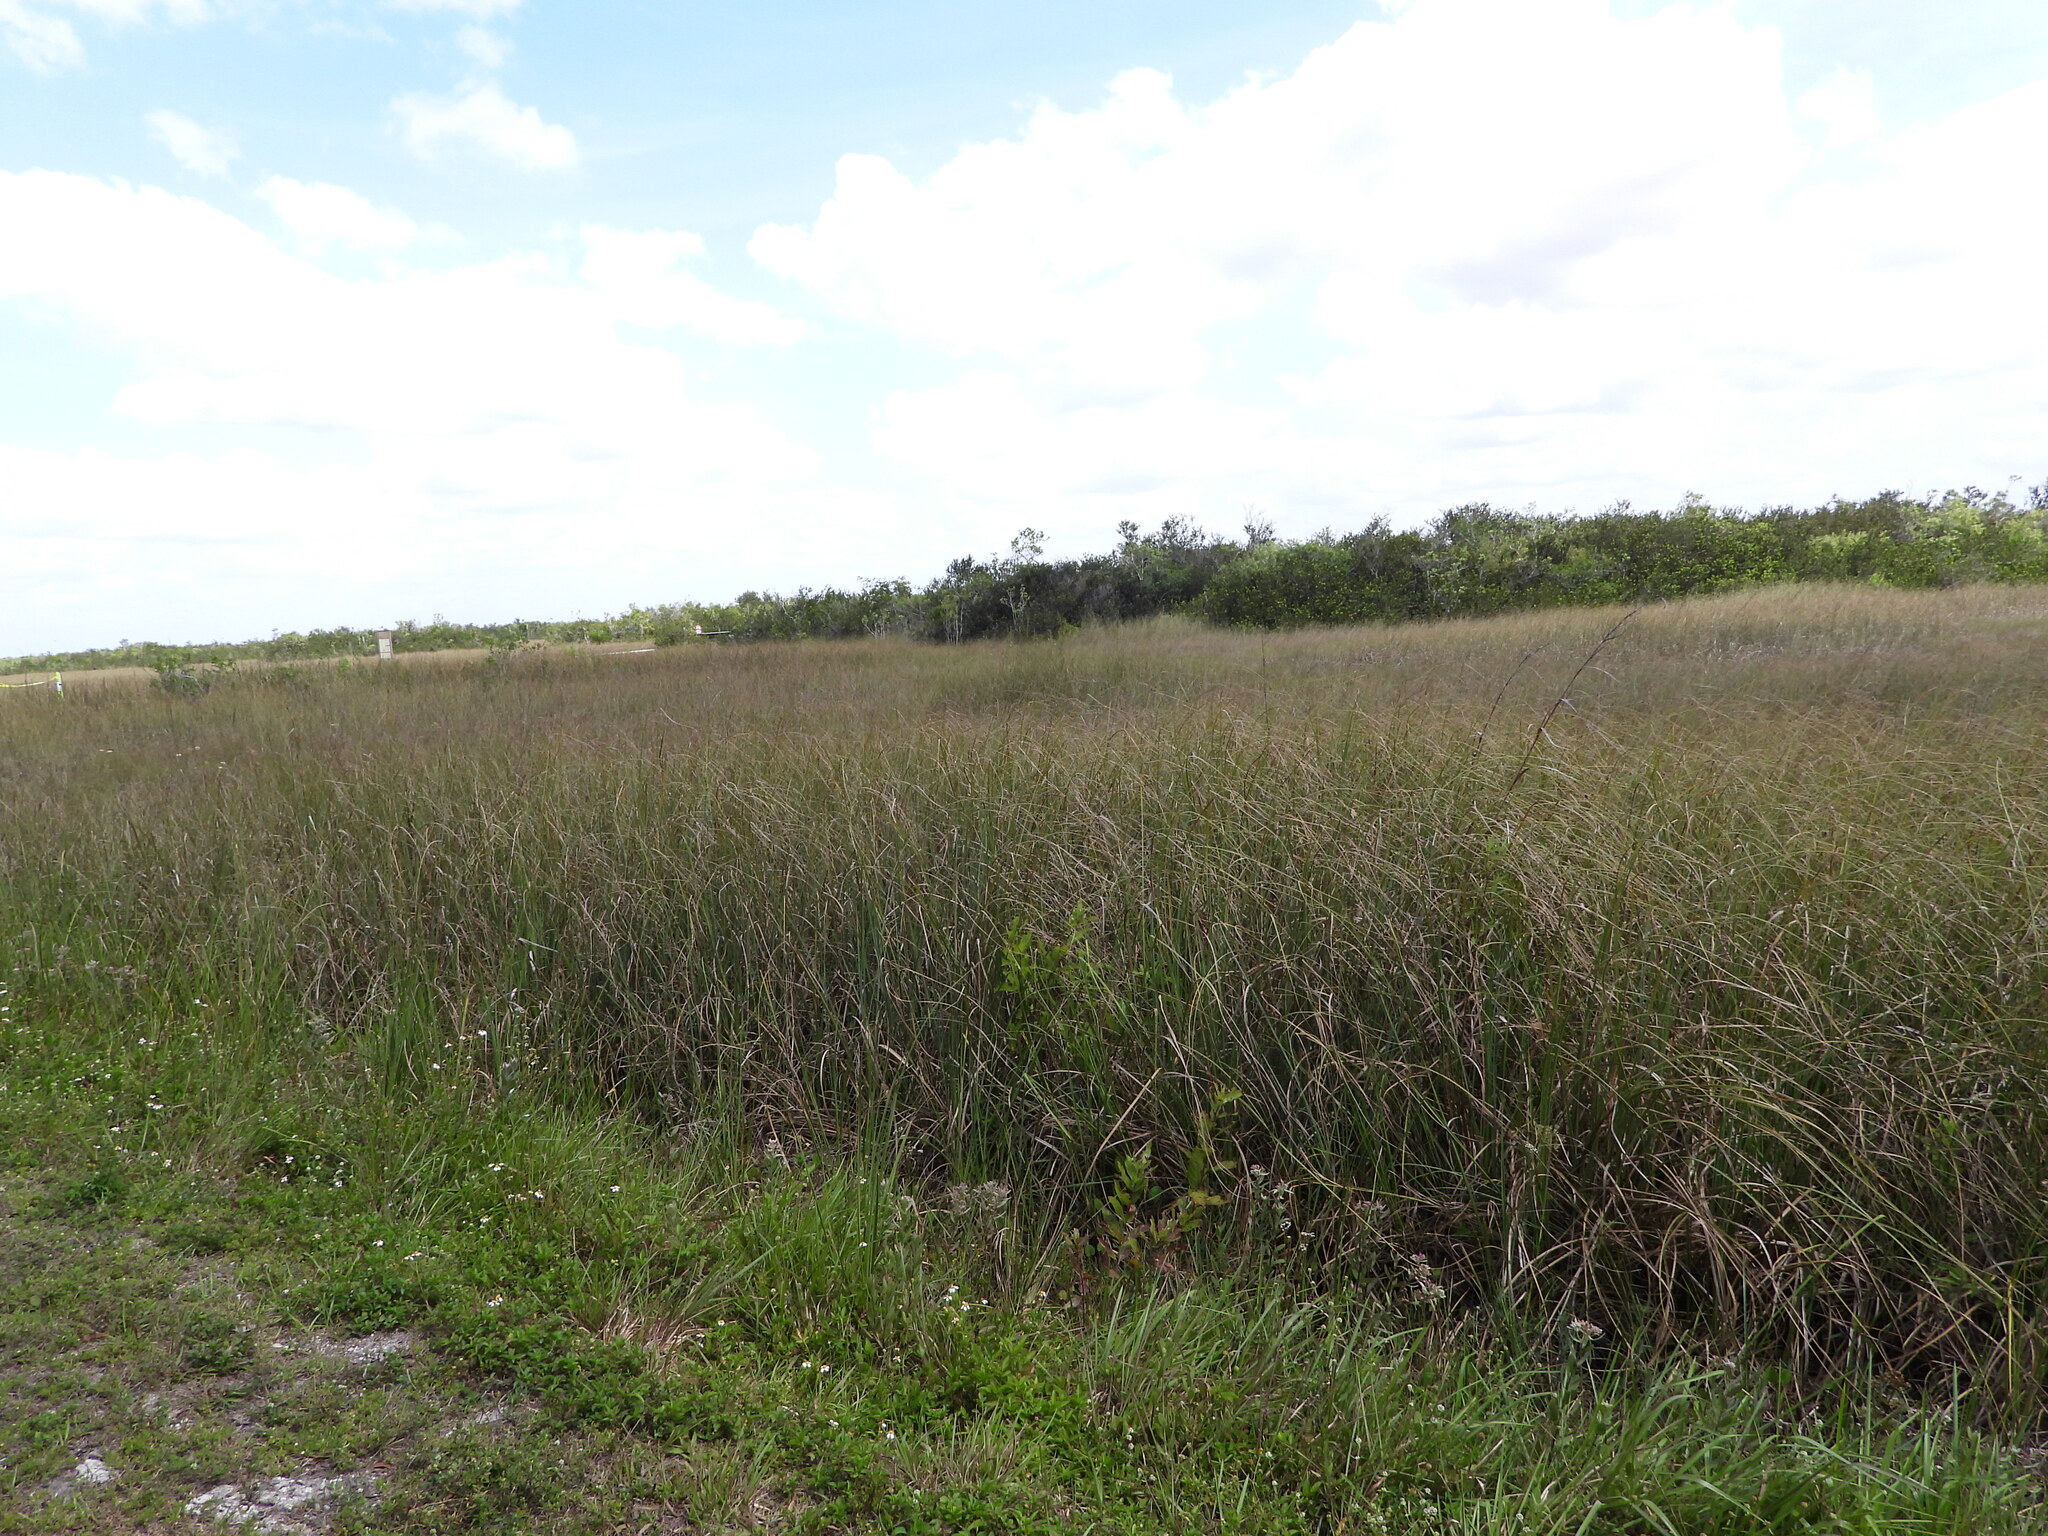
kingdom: Plantae
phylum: Tracheophyta
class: Liliopsida
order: Poales
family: Cyperaceae
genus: Cladium
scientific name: Cladium mariscus
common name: Great fen-sedge
